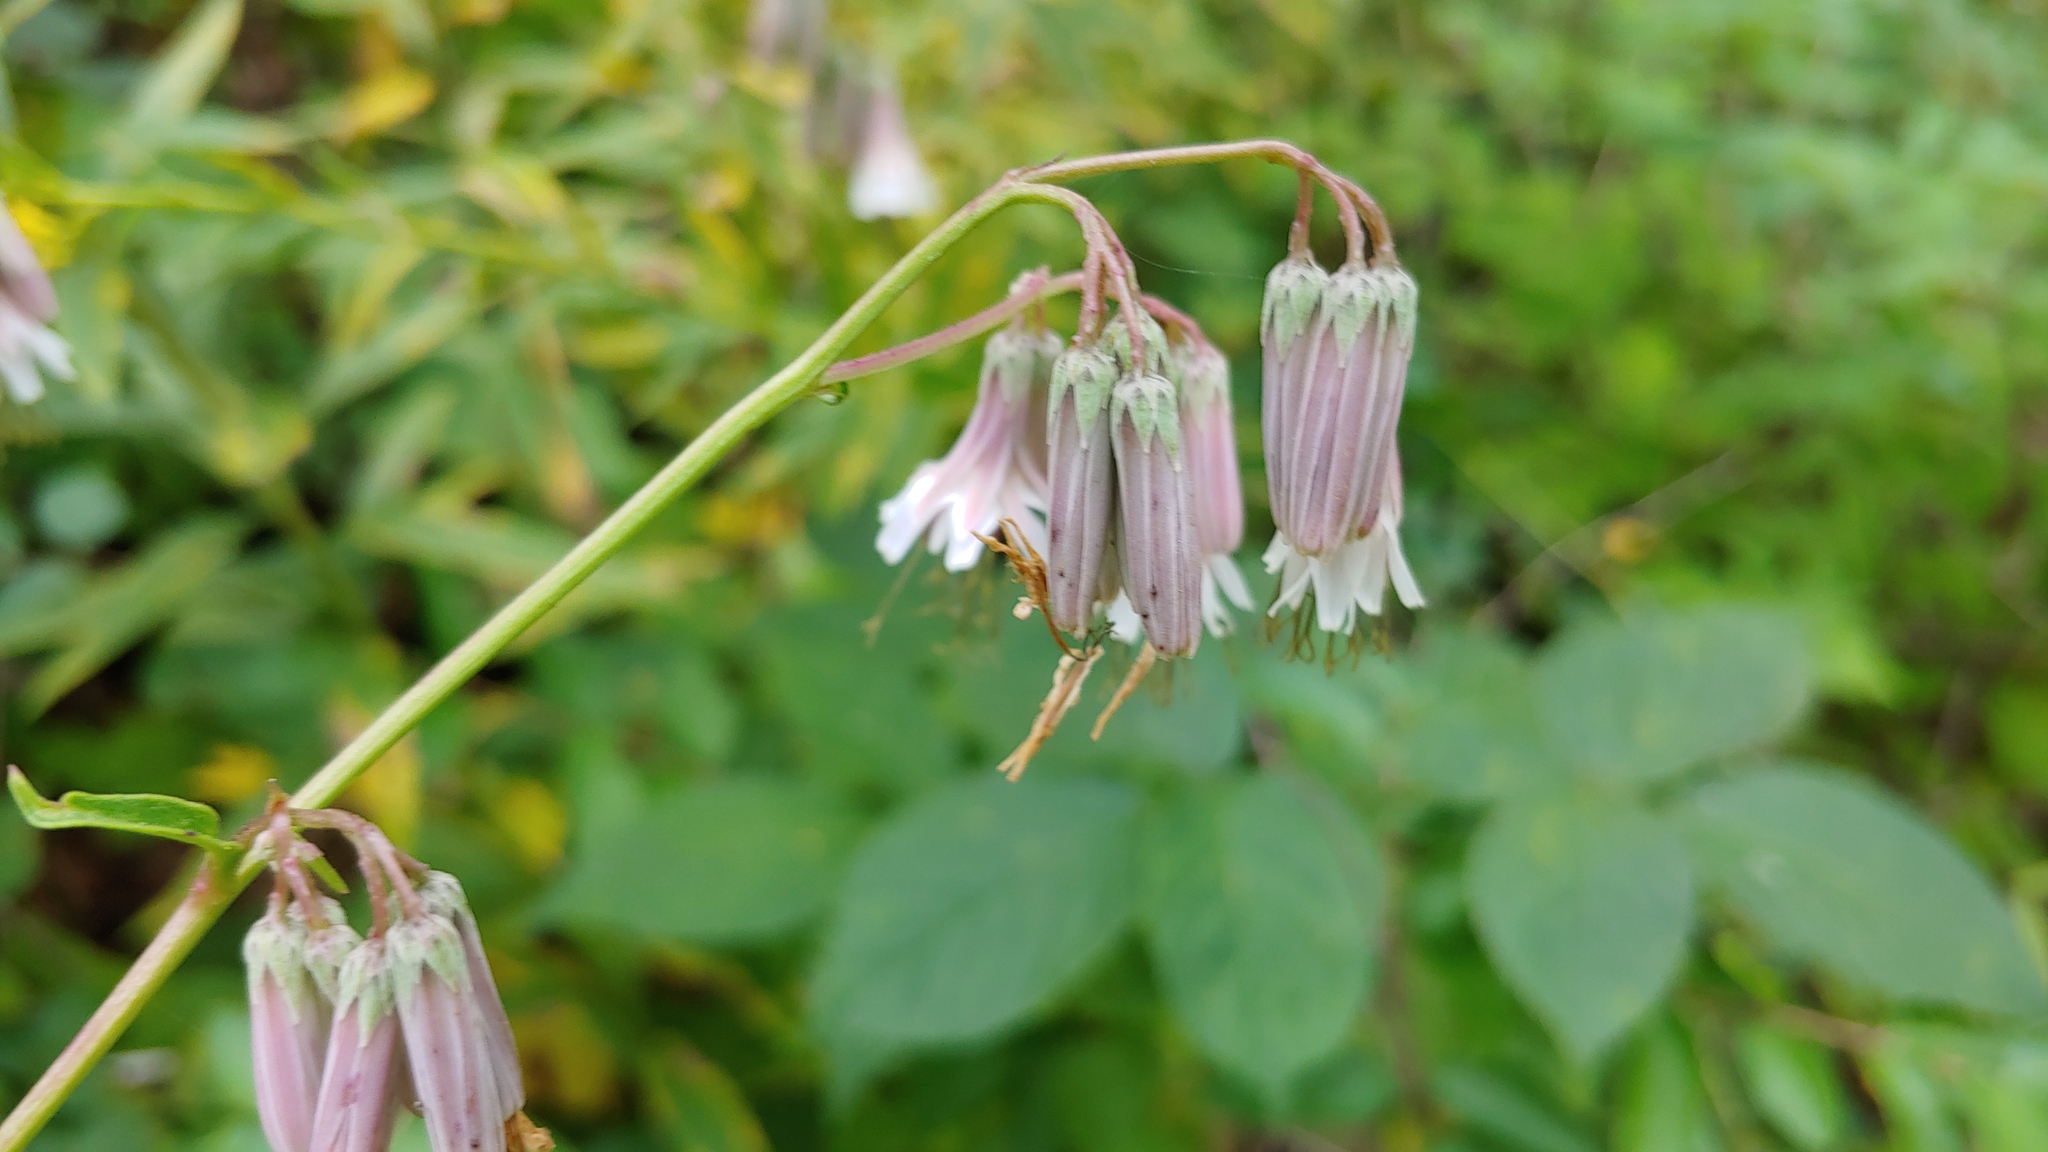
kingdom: Plantae
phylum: Tracheophyta
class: Magnoliopsida
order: Asterales
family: Asteraceae
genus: Nabalus
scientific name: Nabalus albus
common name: White rattlesnakeroot
